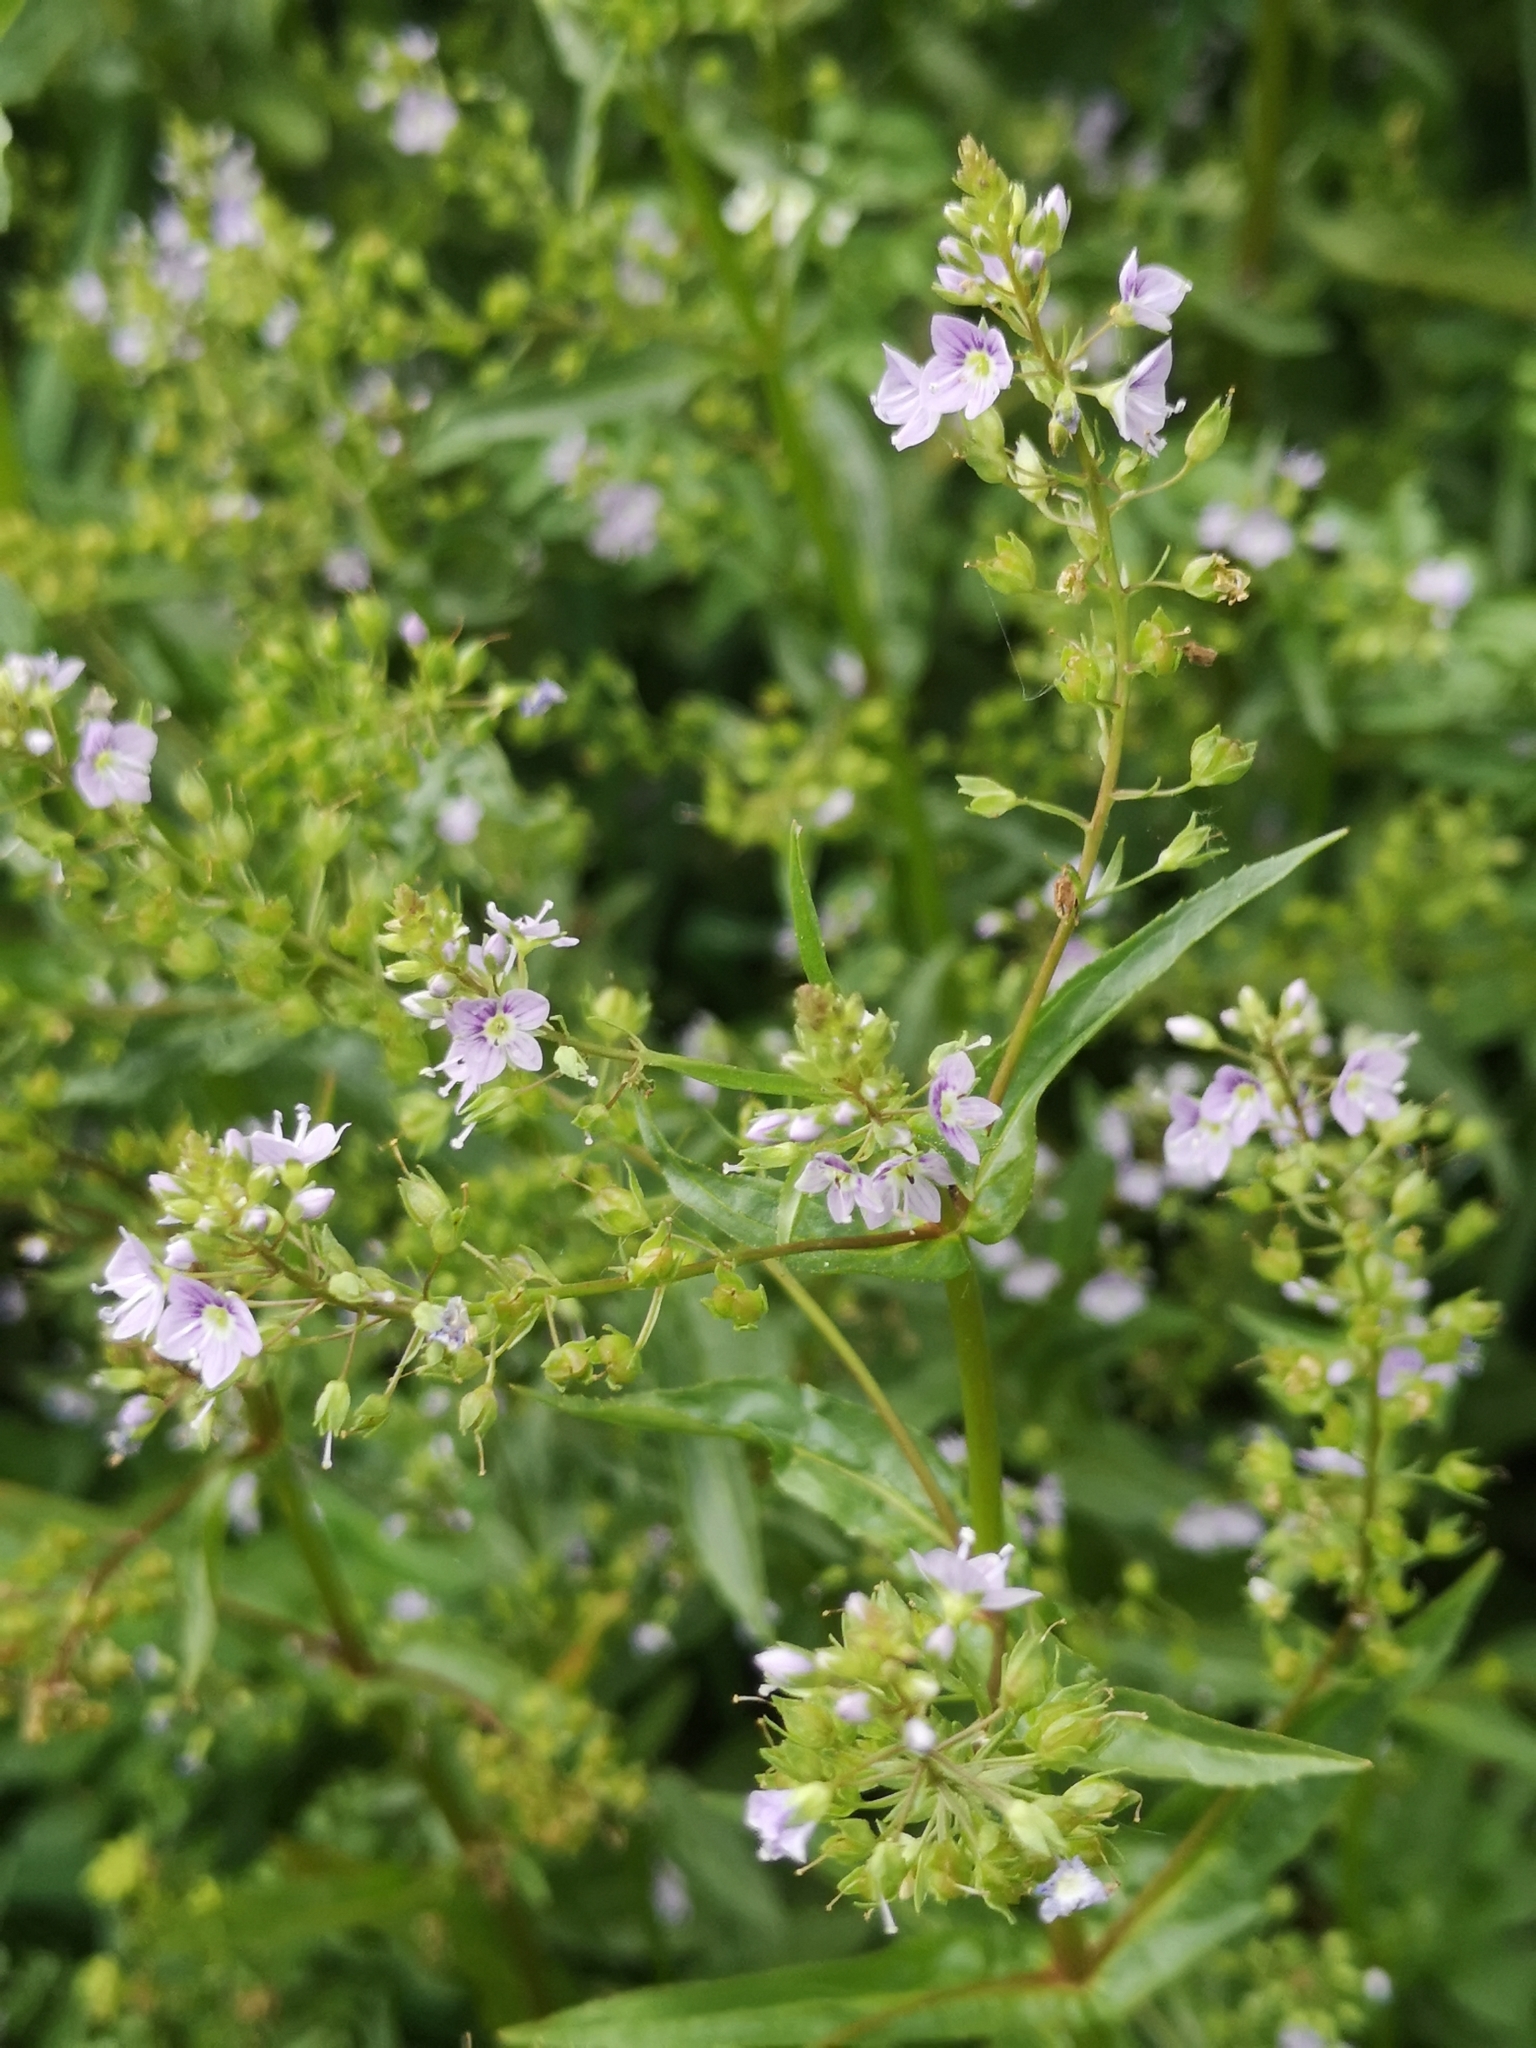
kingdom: Plantae
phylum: Tracheophyta
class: Magnoliopsida
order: Lamiales
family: Plantaginaceae
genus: Veronica
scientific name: Veronica anagallis-aquatica
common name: Water speedwell
